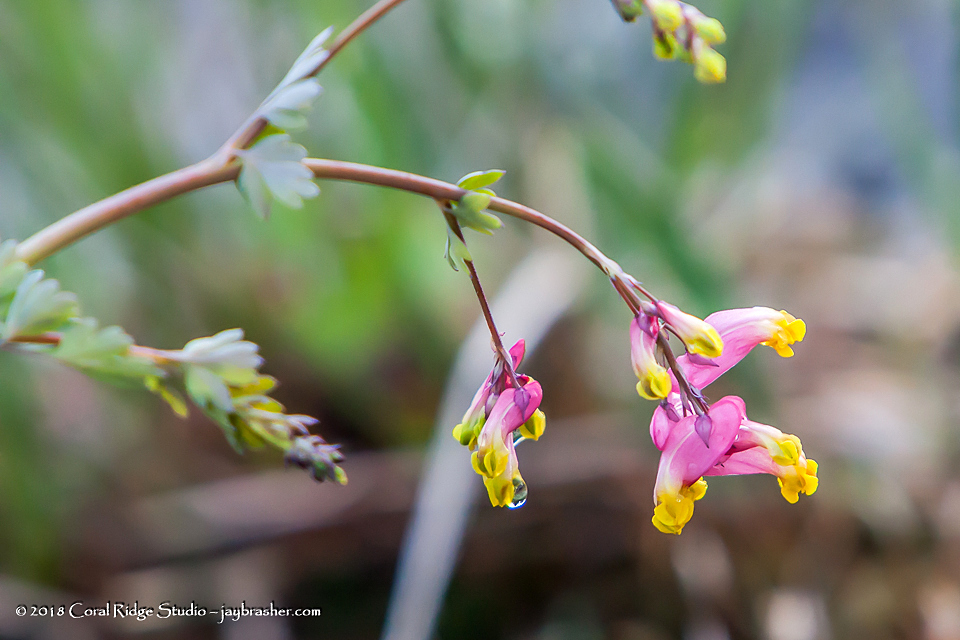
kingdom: Plantae
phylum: Tracheophyta
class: Magnoliopsida
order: Ranunculales
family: Papaveraceae
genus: Capnoides
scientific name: Capnoides sempervirens
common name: Rock harlequin
